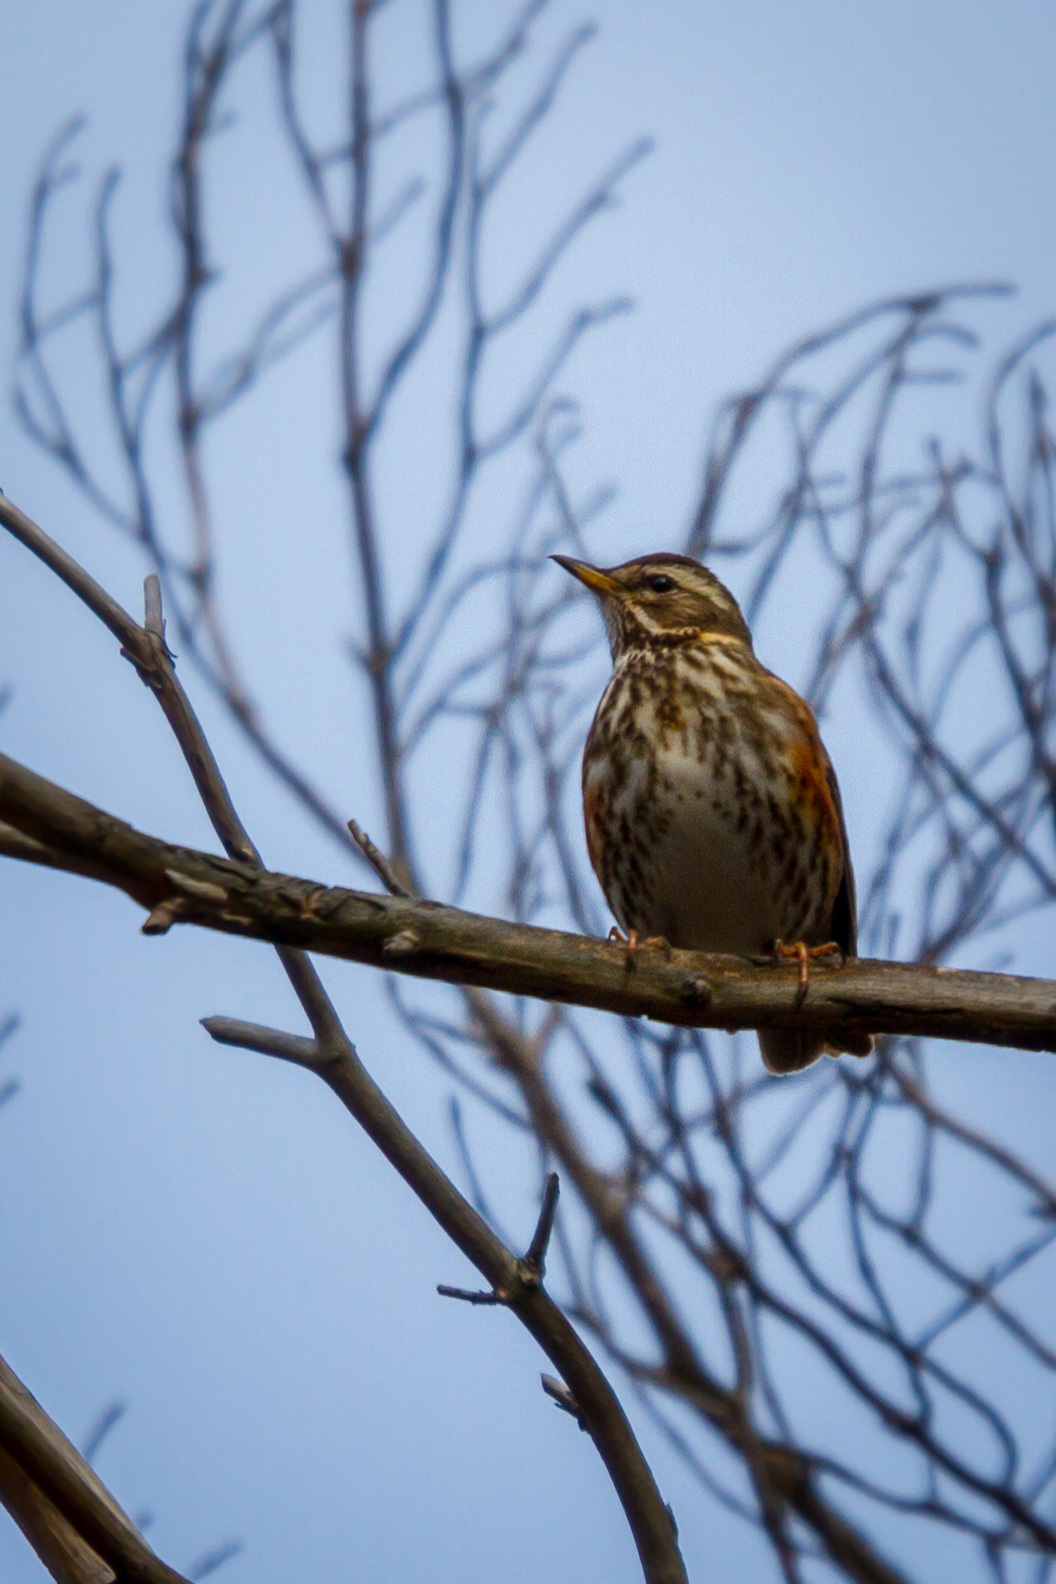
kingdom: Animalia
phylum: Chordata
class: Aves
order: Passeriformes
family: Turdidae
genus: Turdus
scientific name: Turdus iliacus
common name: Redwing
